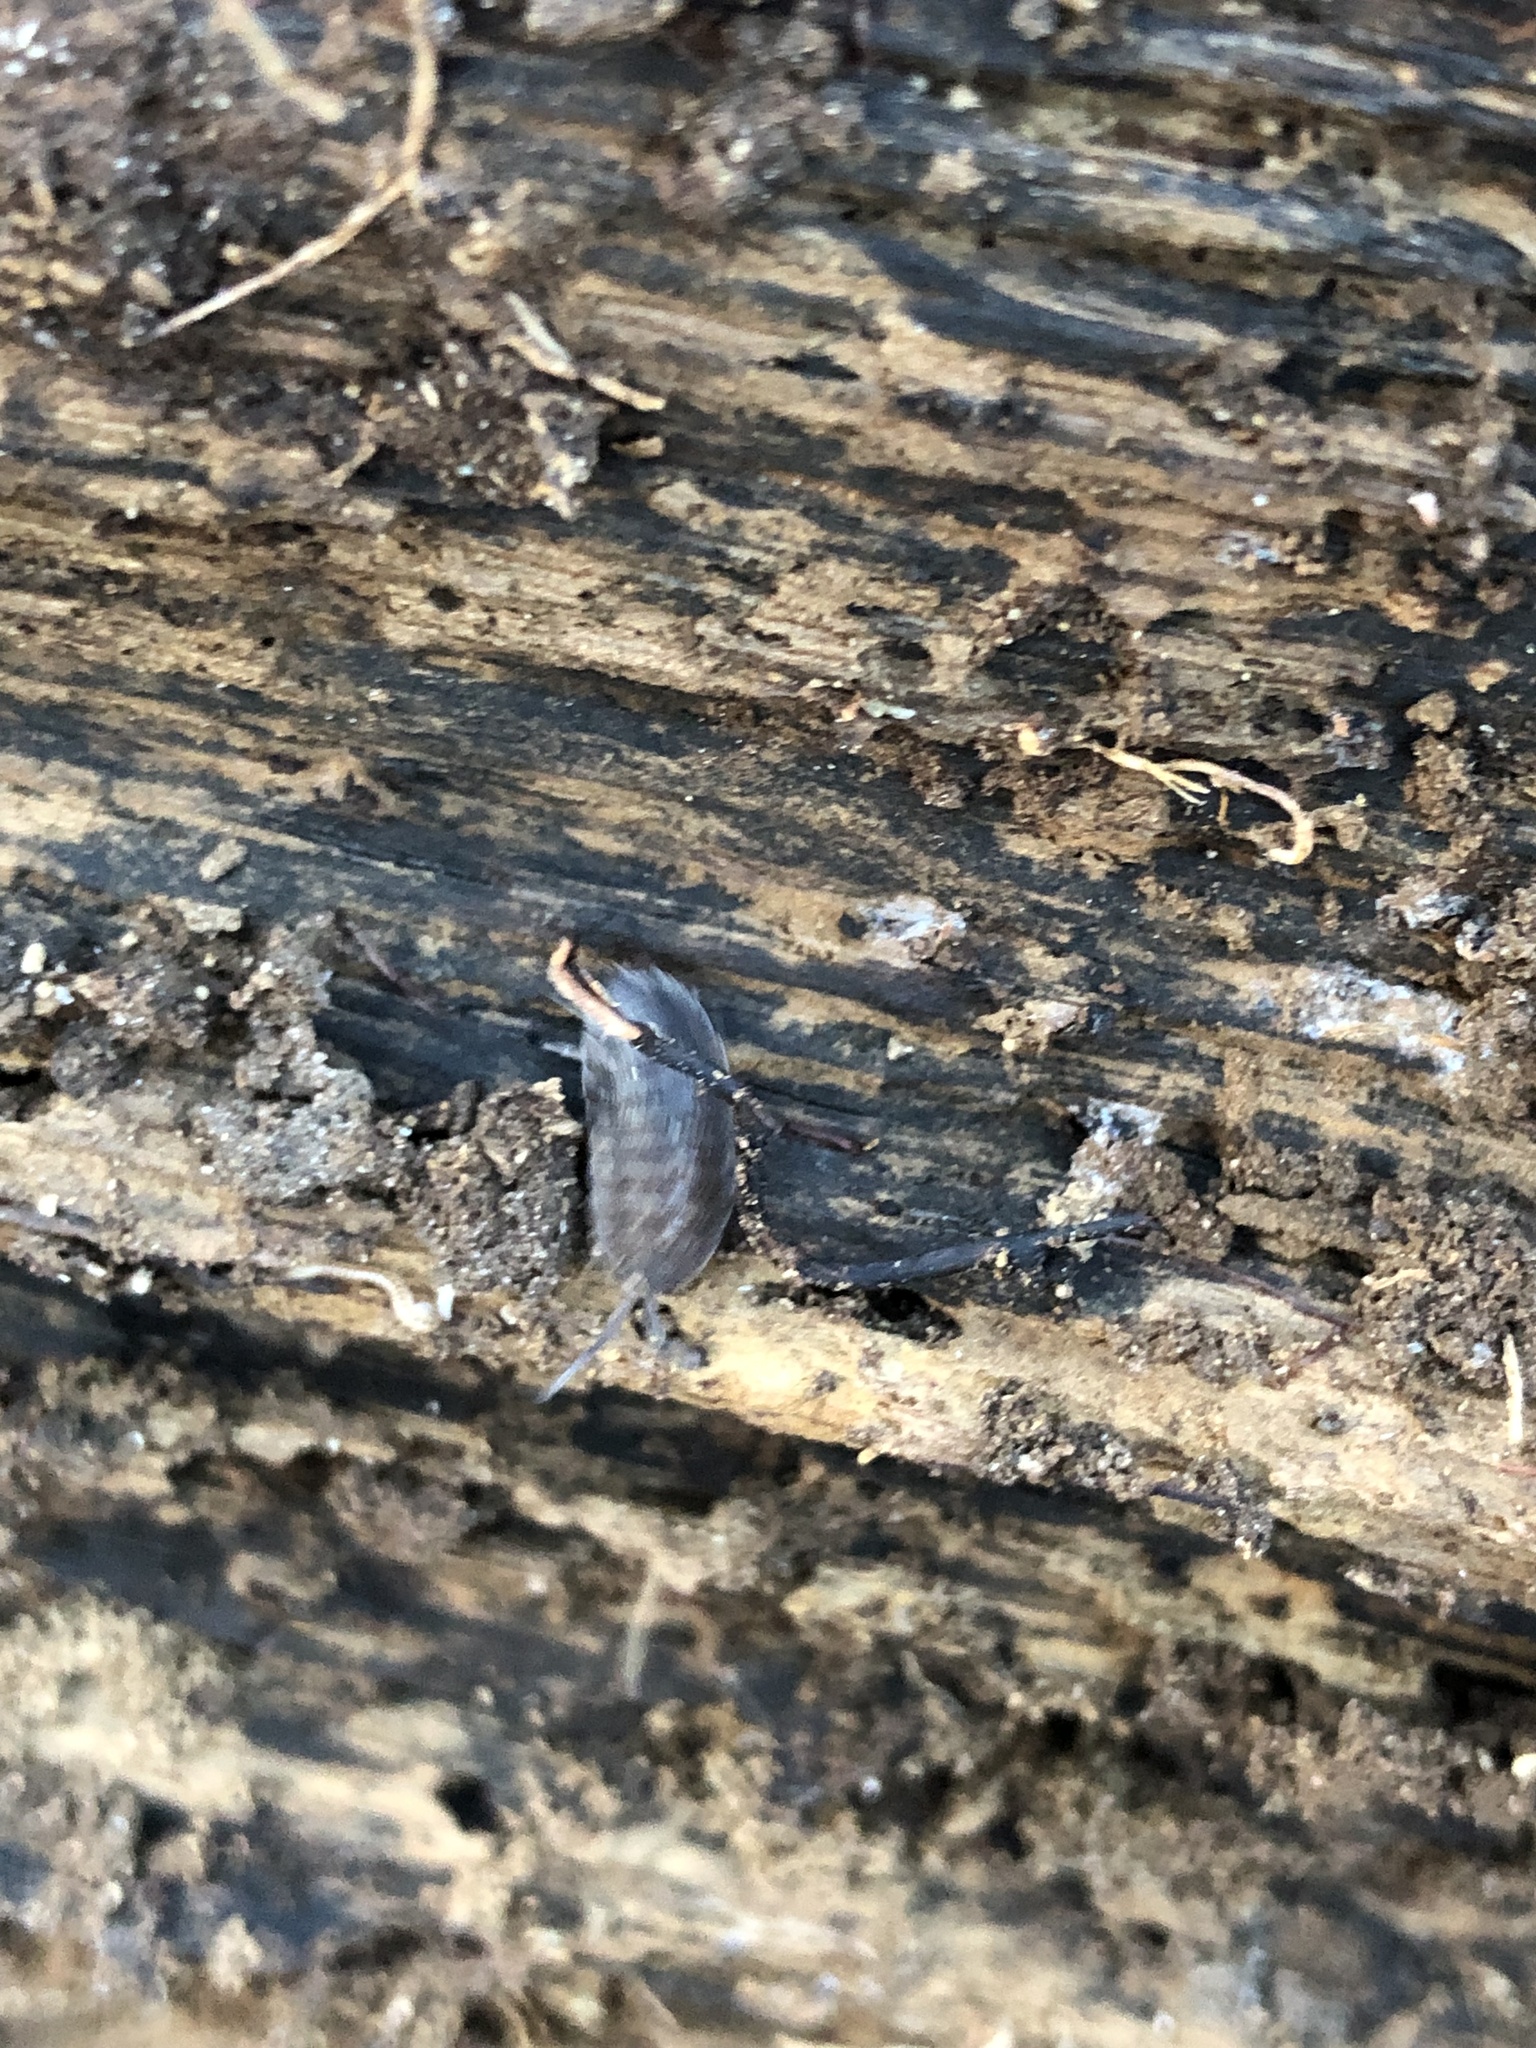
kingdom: Animalia
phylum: Arthropoda
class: Malacostraca
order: Isopoda
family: Porcellionidae
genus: Porcellio
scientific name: Porcellio scaber
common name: Common rough woodlouse
